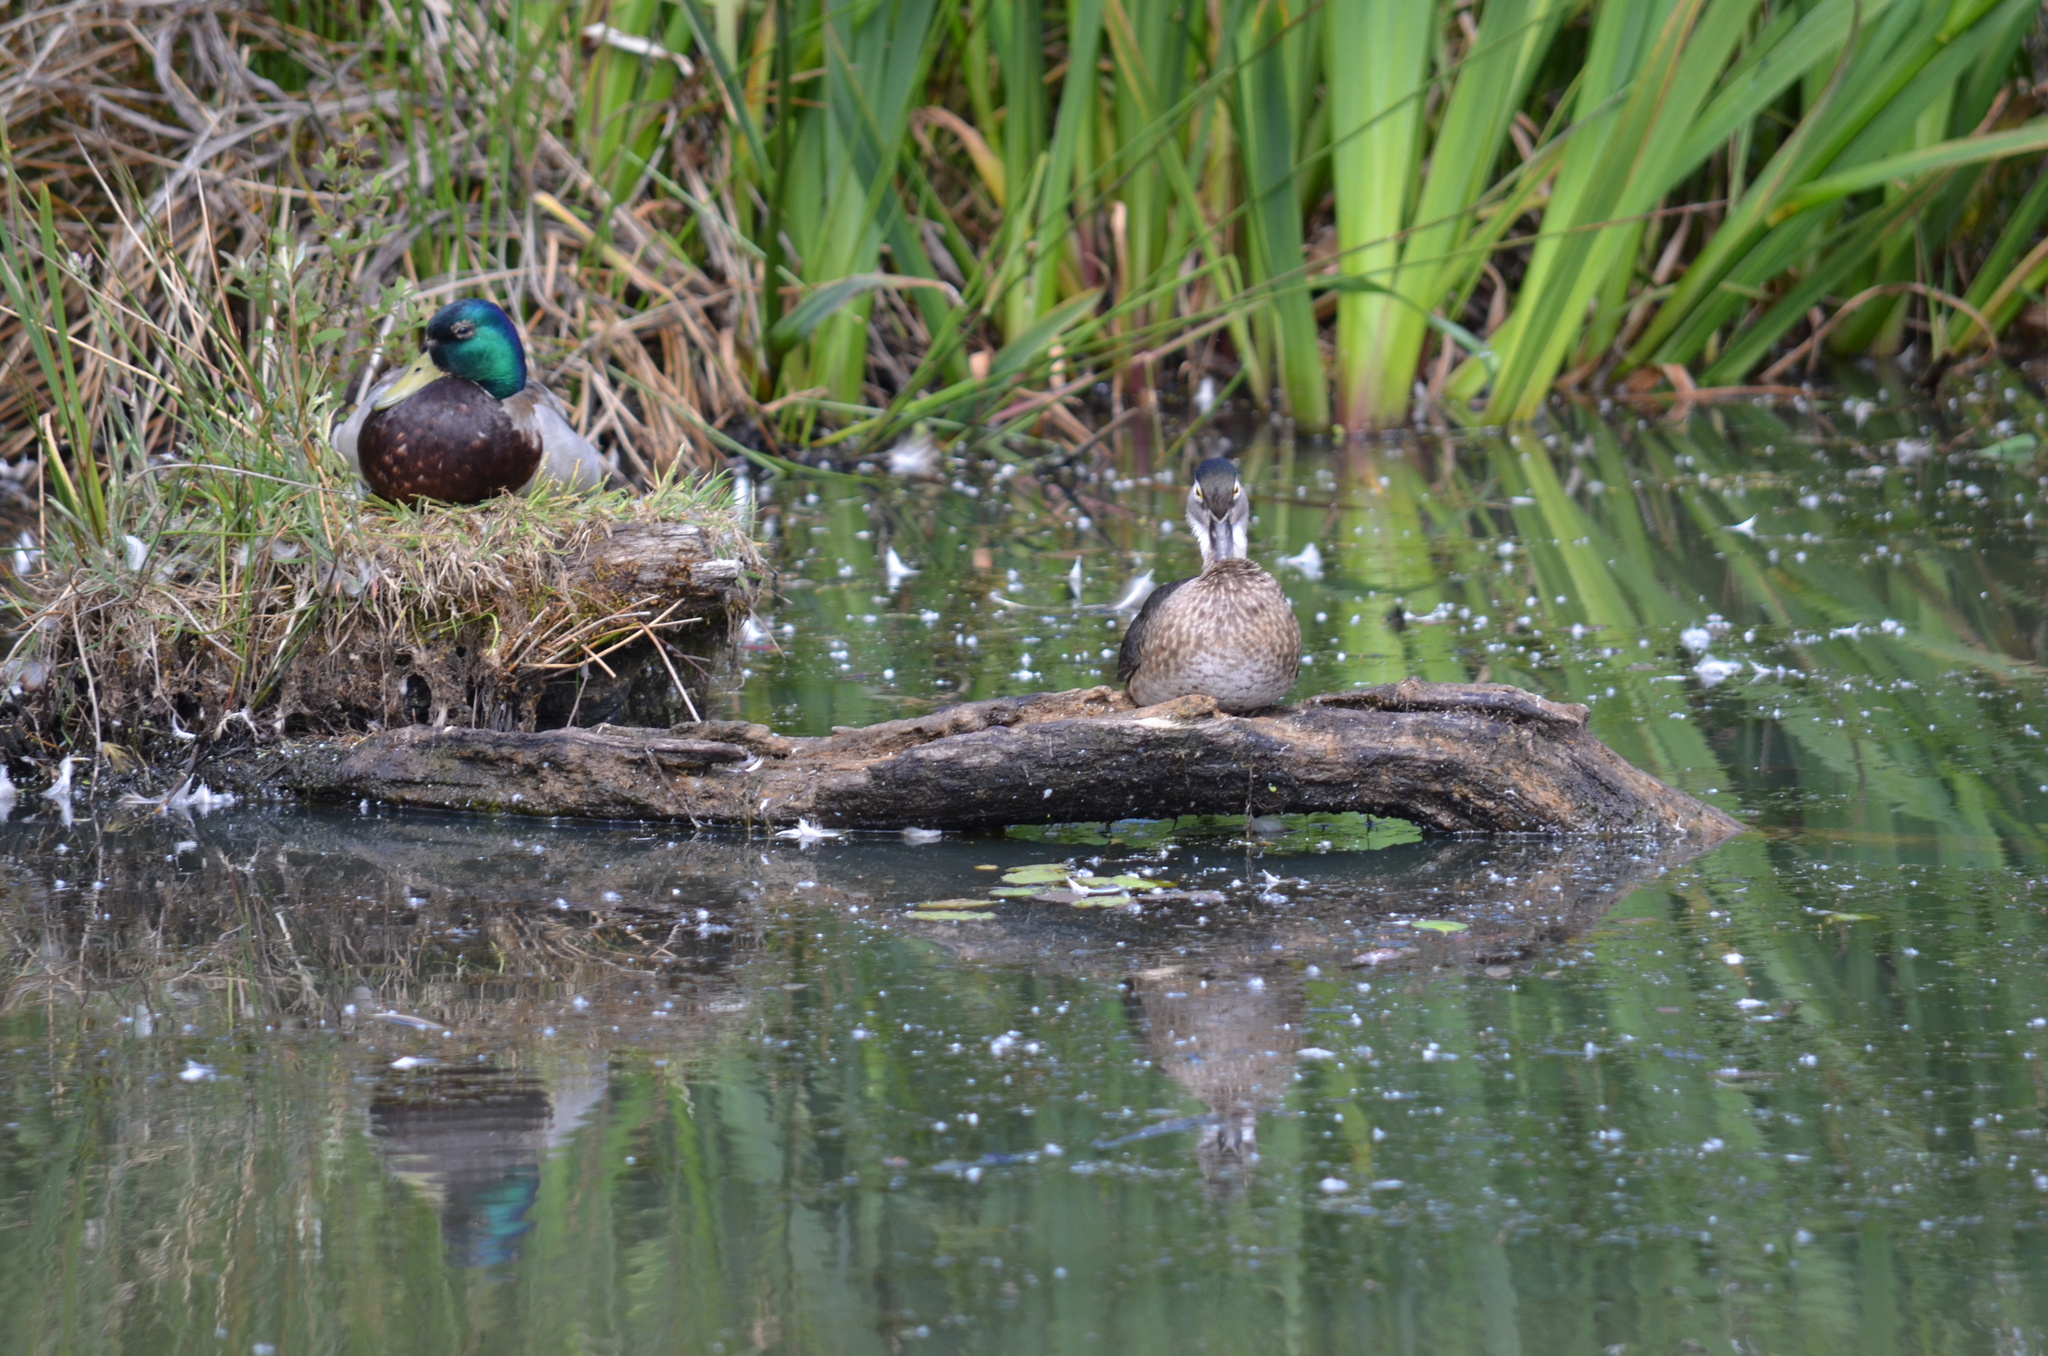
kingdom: Animalia
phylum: Chordata
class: Aves
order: Anseriformes
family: Anatidae
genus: Aix
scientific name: Aix sponsa
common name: Wood duck
